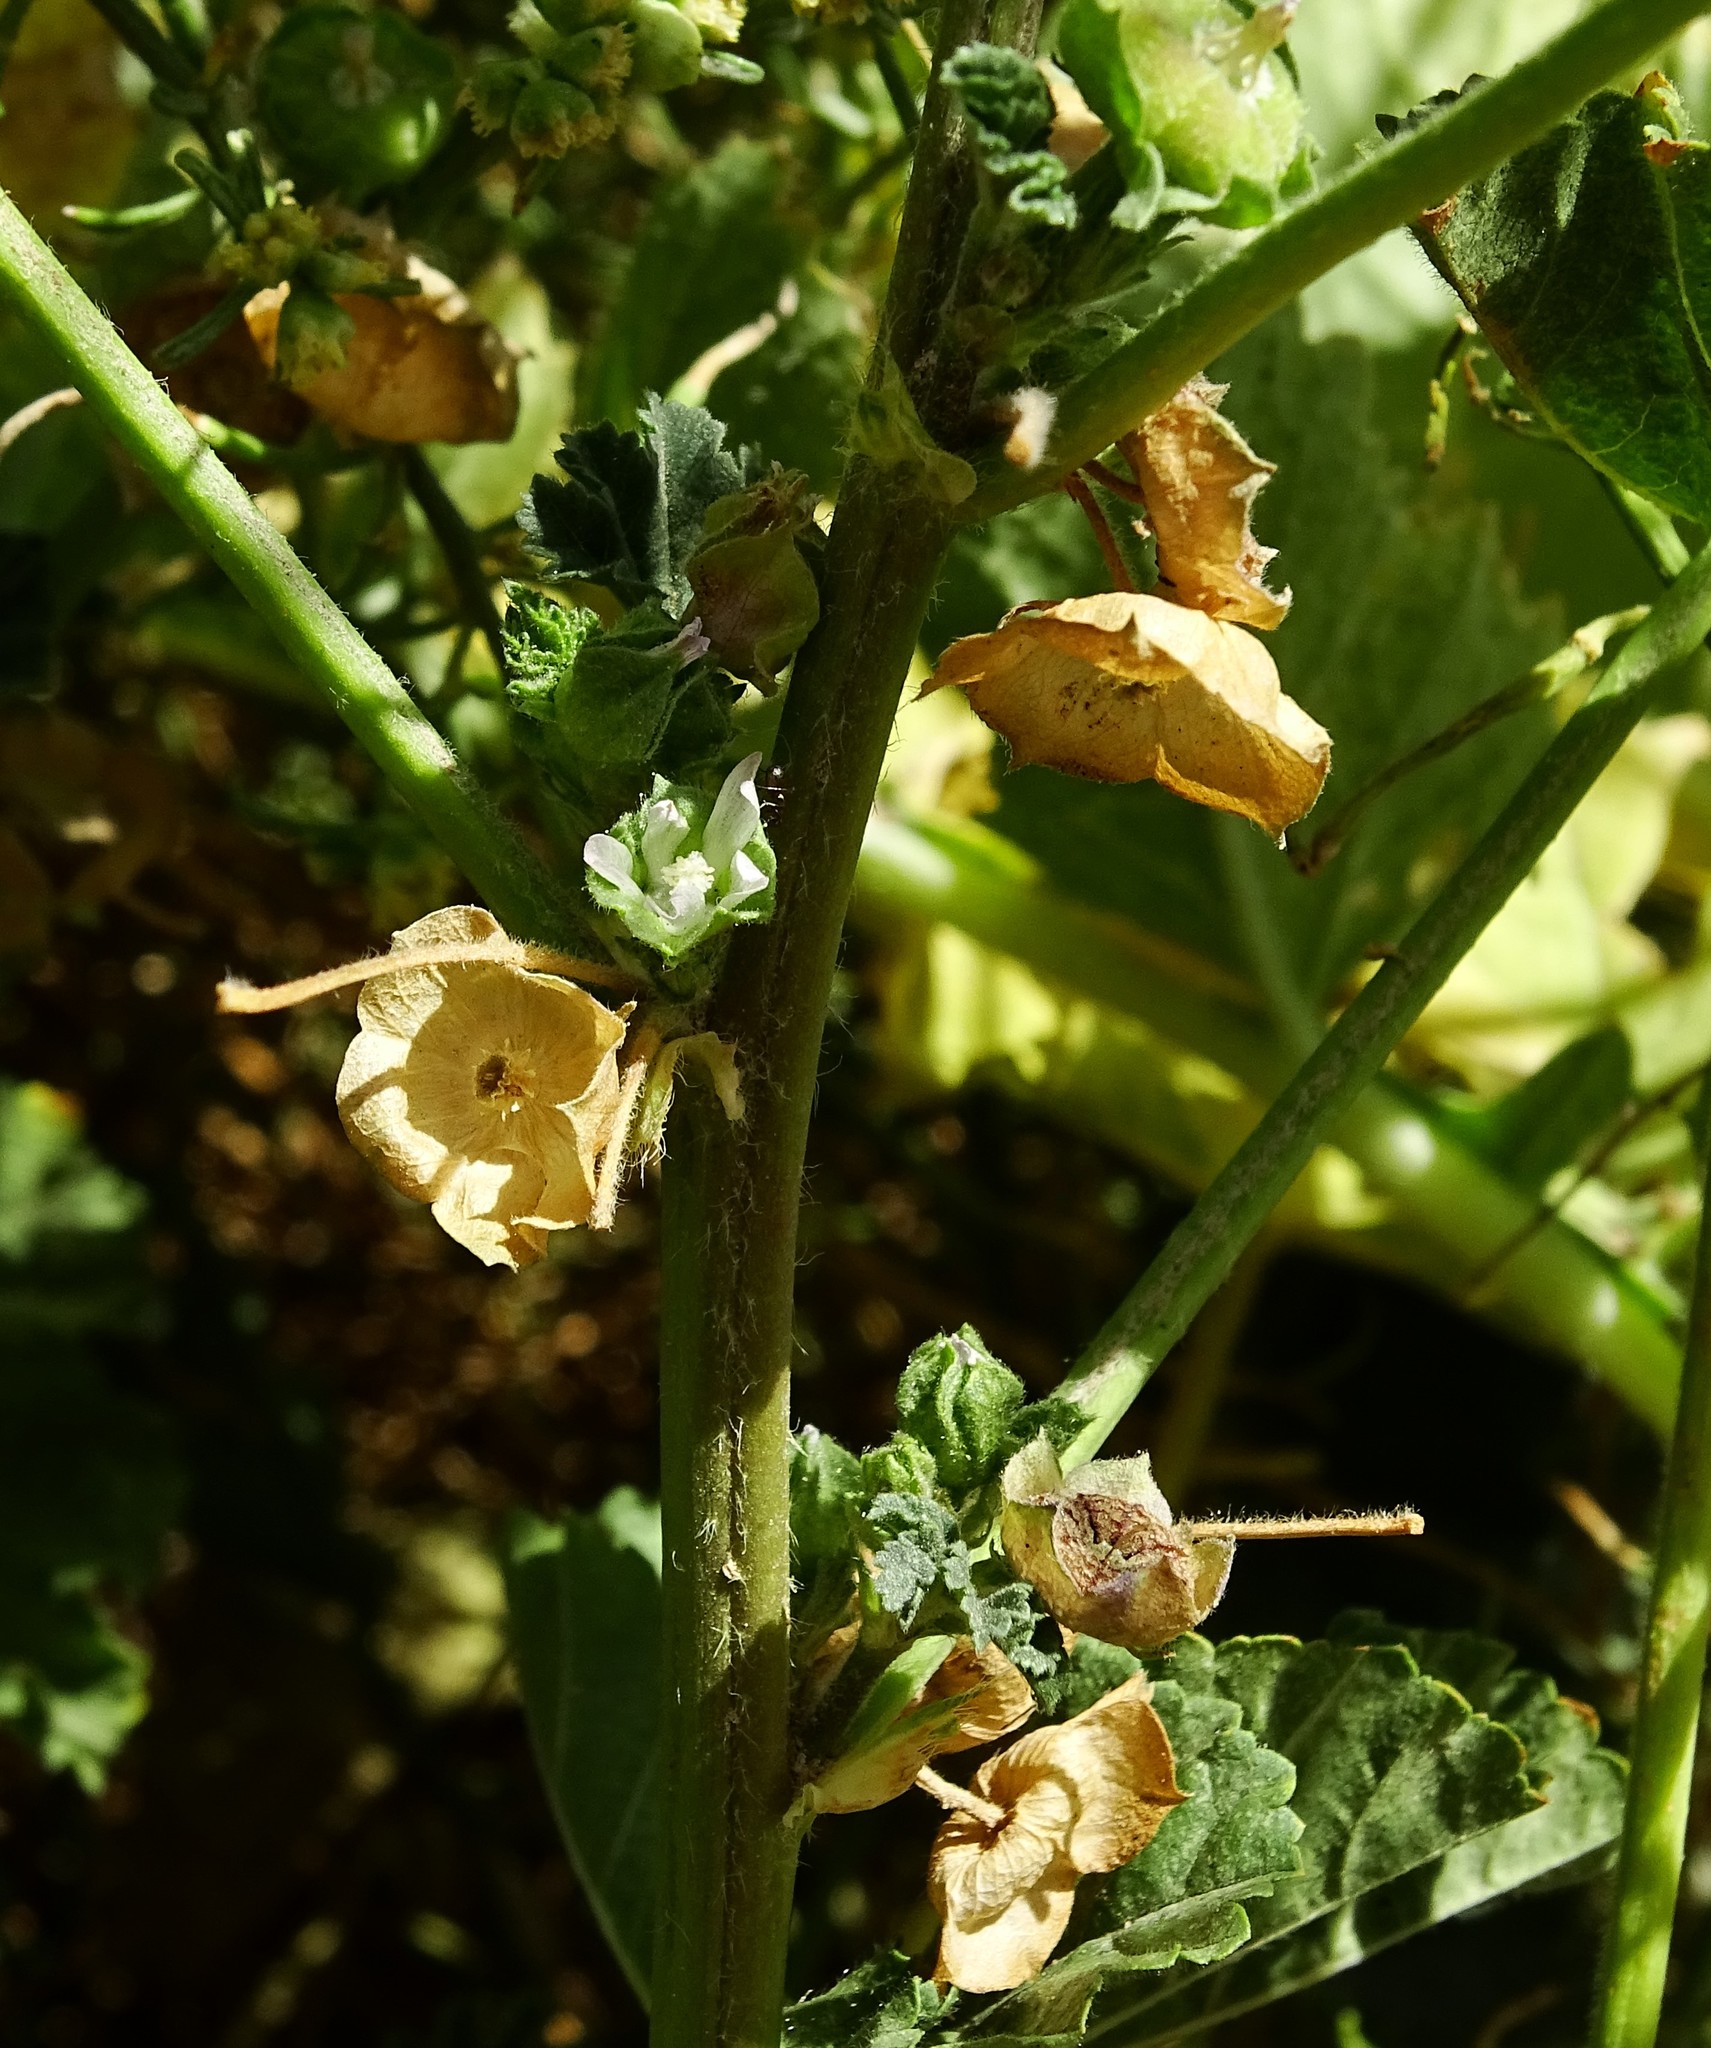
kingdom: Plantae
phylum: Tracheophyta
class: Magnoliopsida
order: Malvales
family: Malvaceae
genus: Malva
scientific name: Malva parviflora
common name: Least mallow
